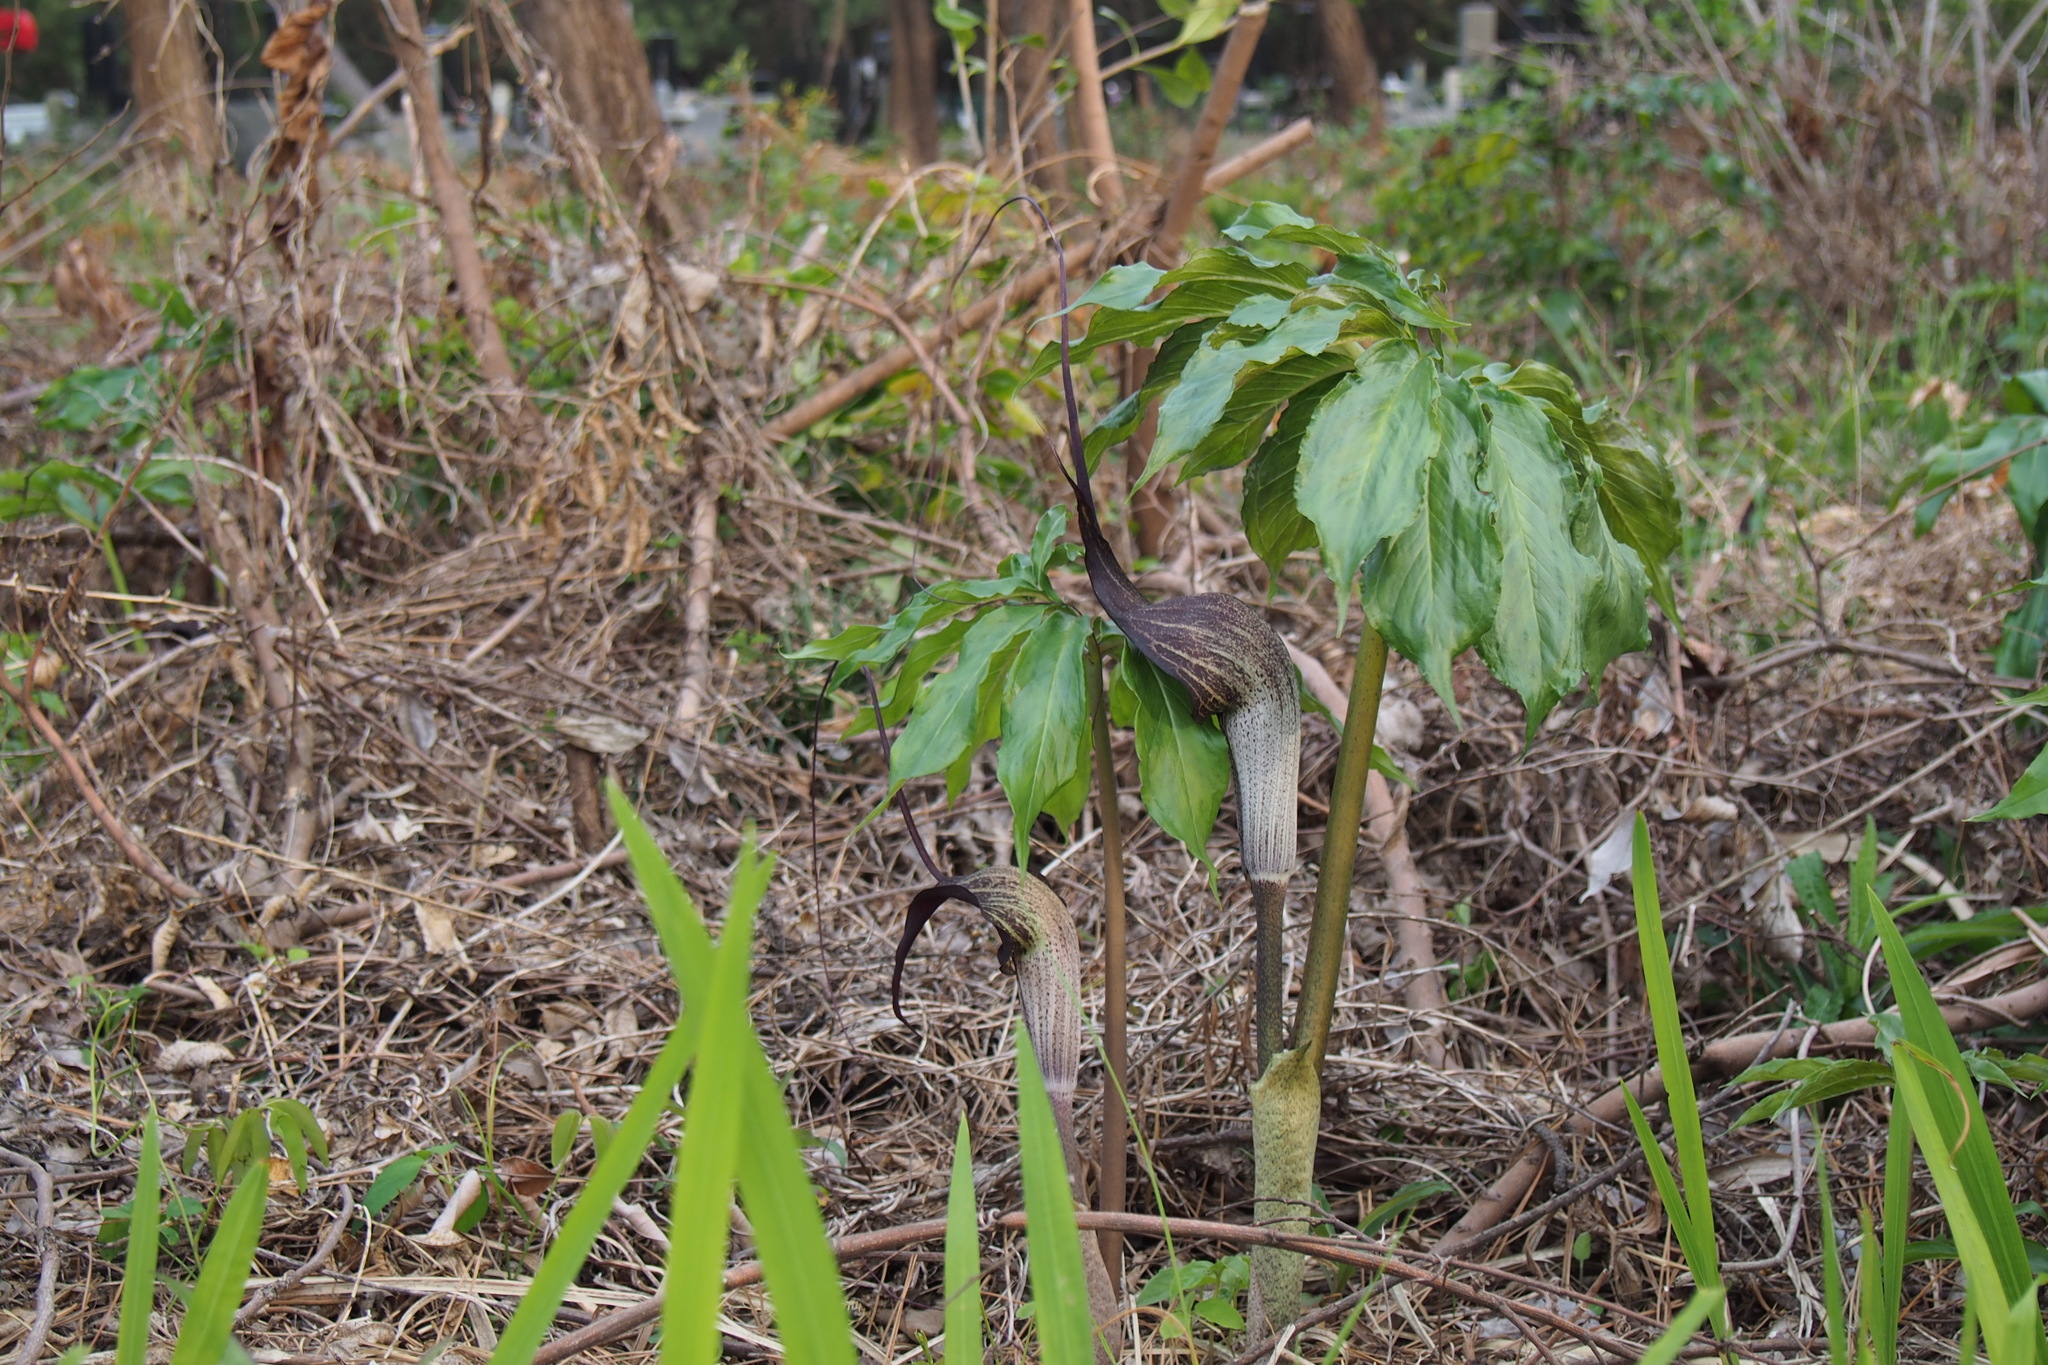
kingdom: Plantae
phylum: Tracheophyta
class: Liliopsida
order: Alismatales
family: Araceae
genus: Arisaema
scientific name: Arisaema thunbergii
